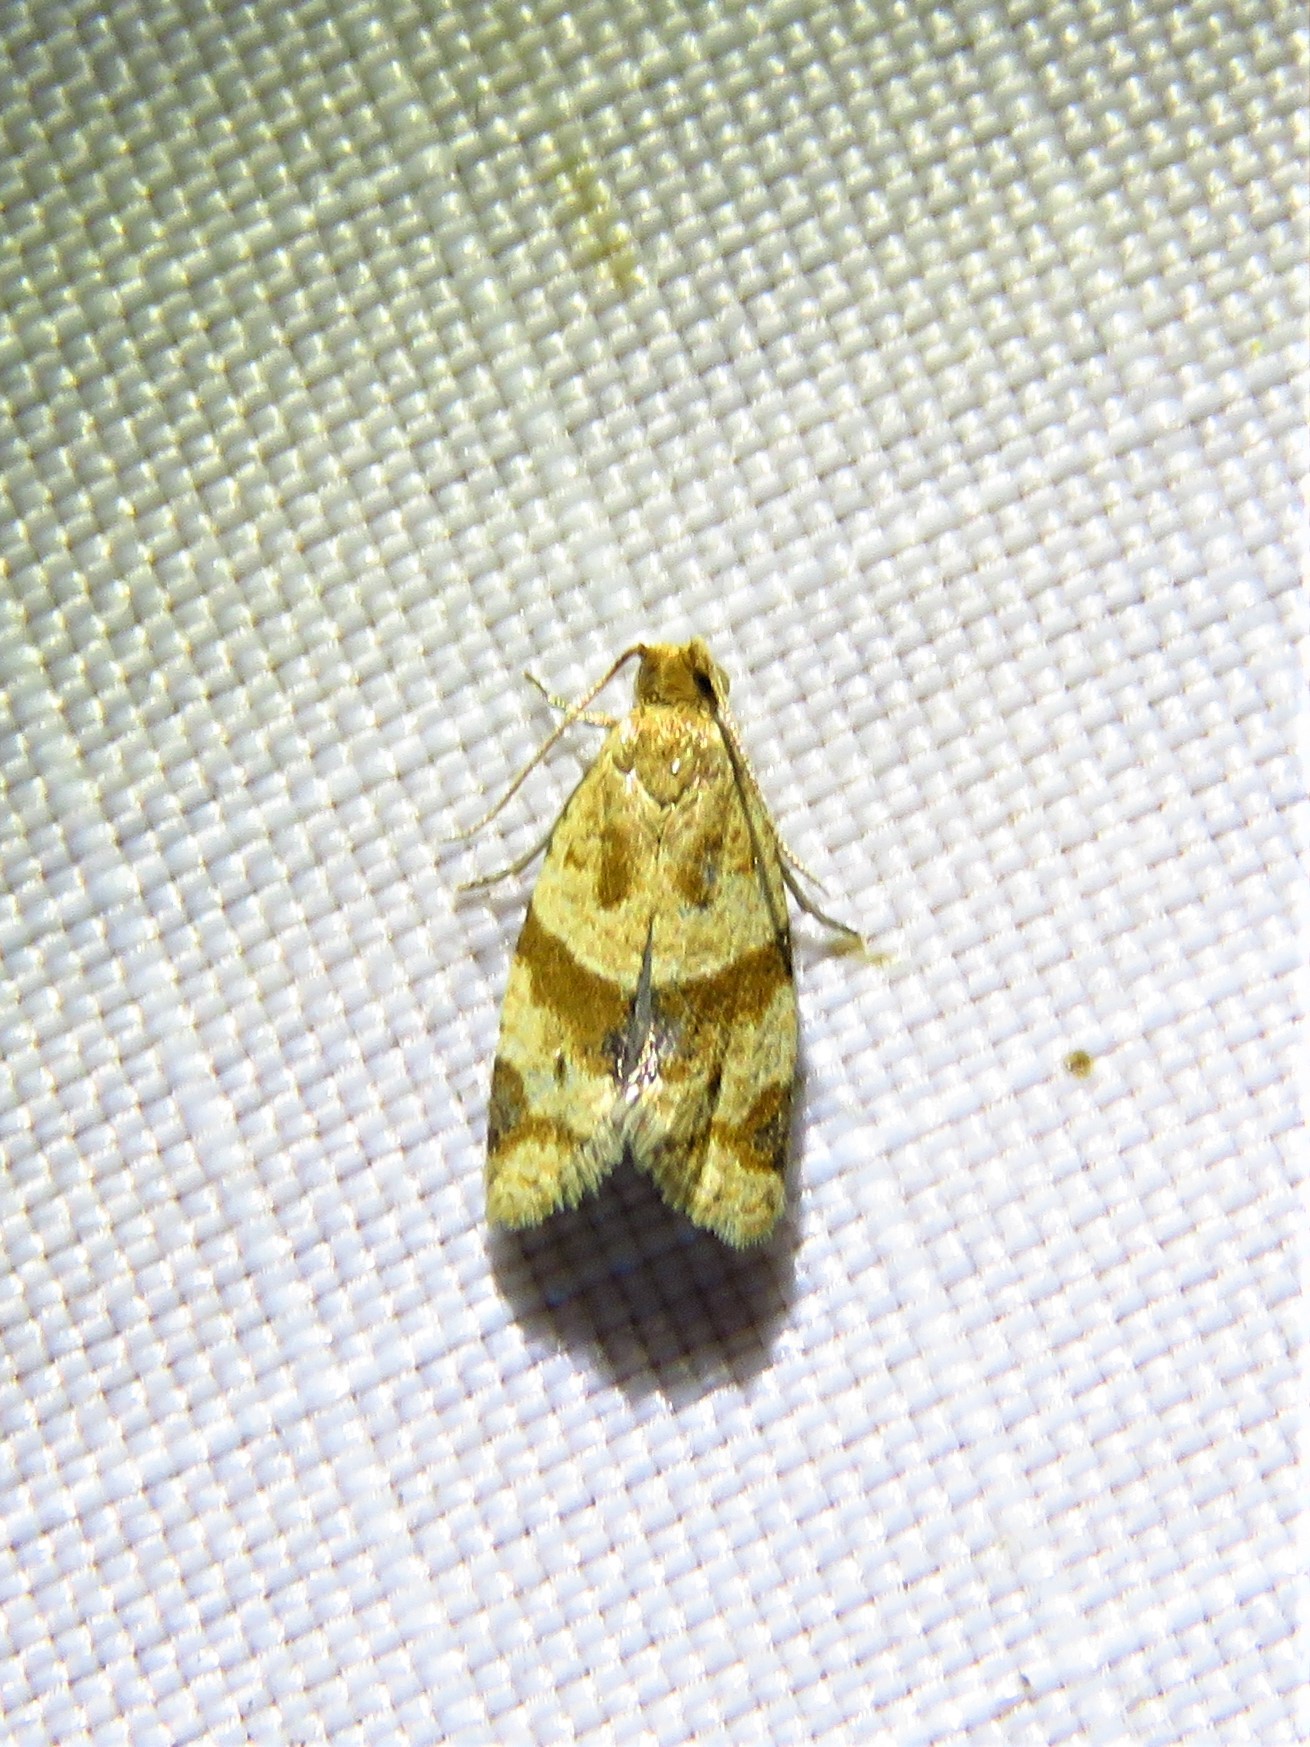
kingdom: Animalia
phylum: Arthropoda
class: Insecta
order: Lepidoptera
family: Tortricidae
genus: Clepsis
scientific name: Clepsis peritana
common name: Garden tortrix
